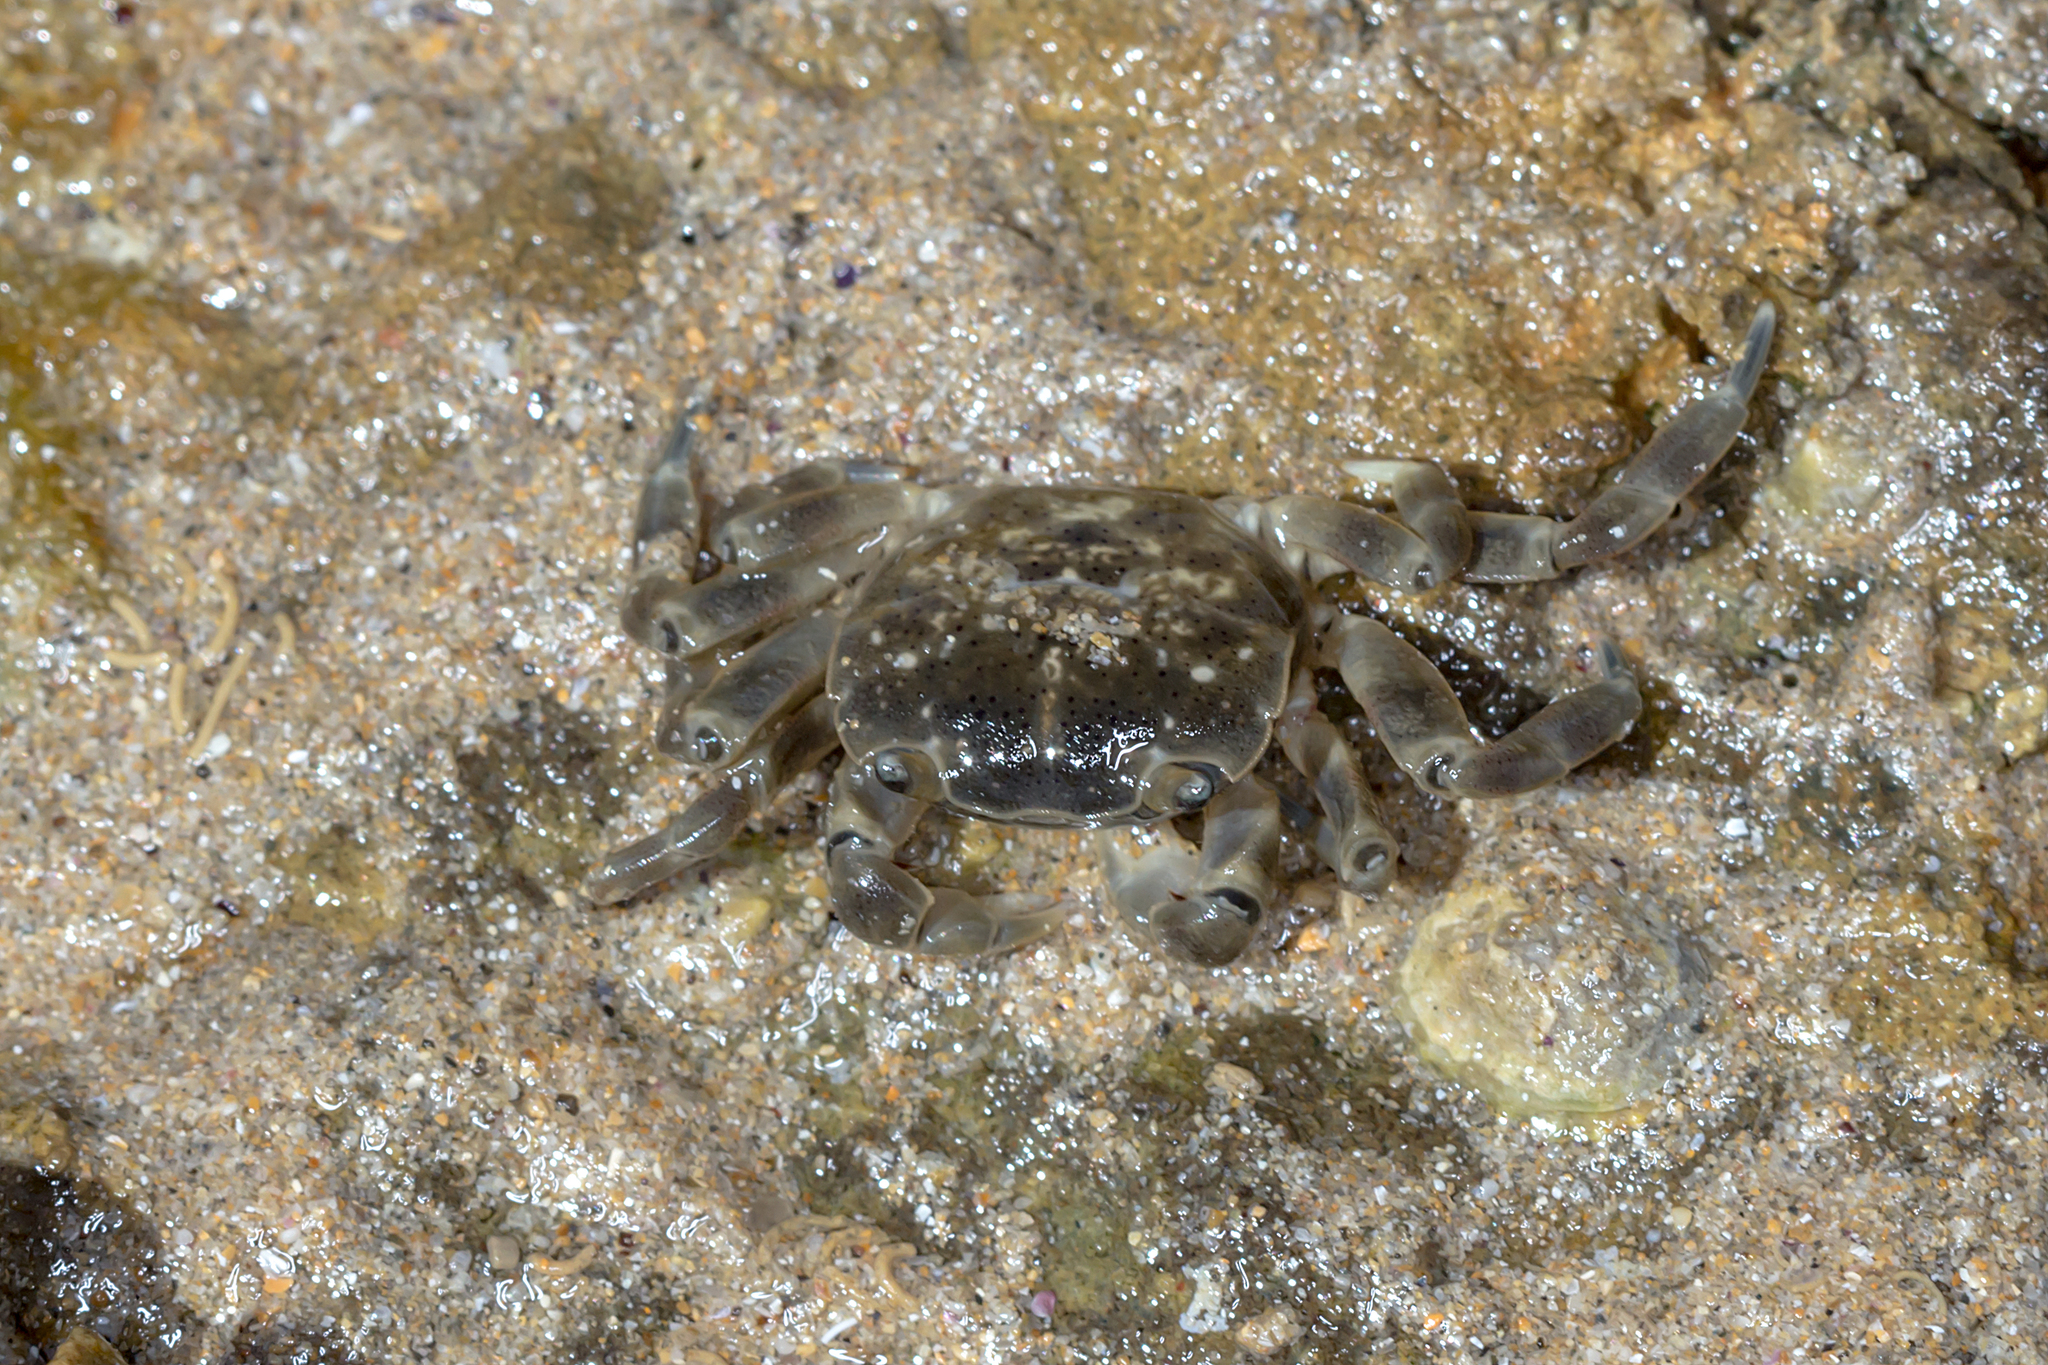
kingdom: Animalia
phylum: Arthropoda
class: Malacostraca
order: Decapoda
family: Varunidae
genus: Paragrapsus
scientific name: Paragrapsus quadridentatus
